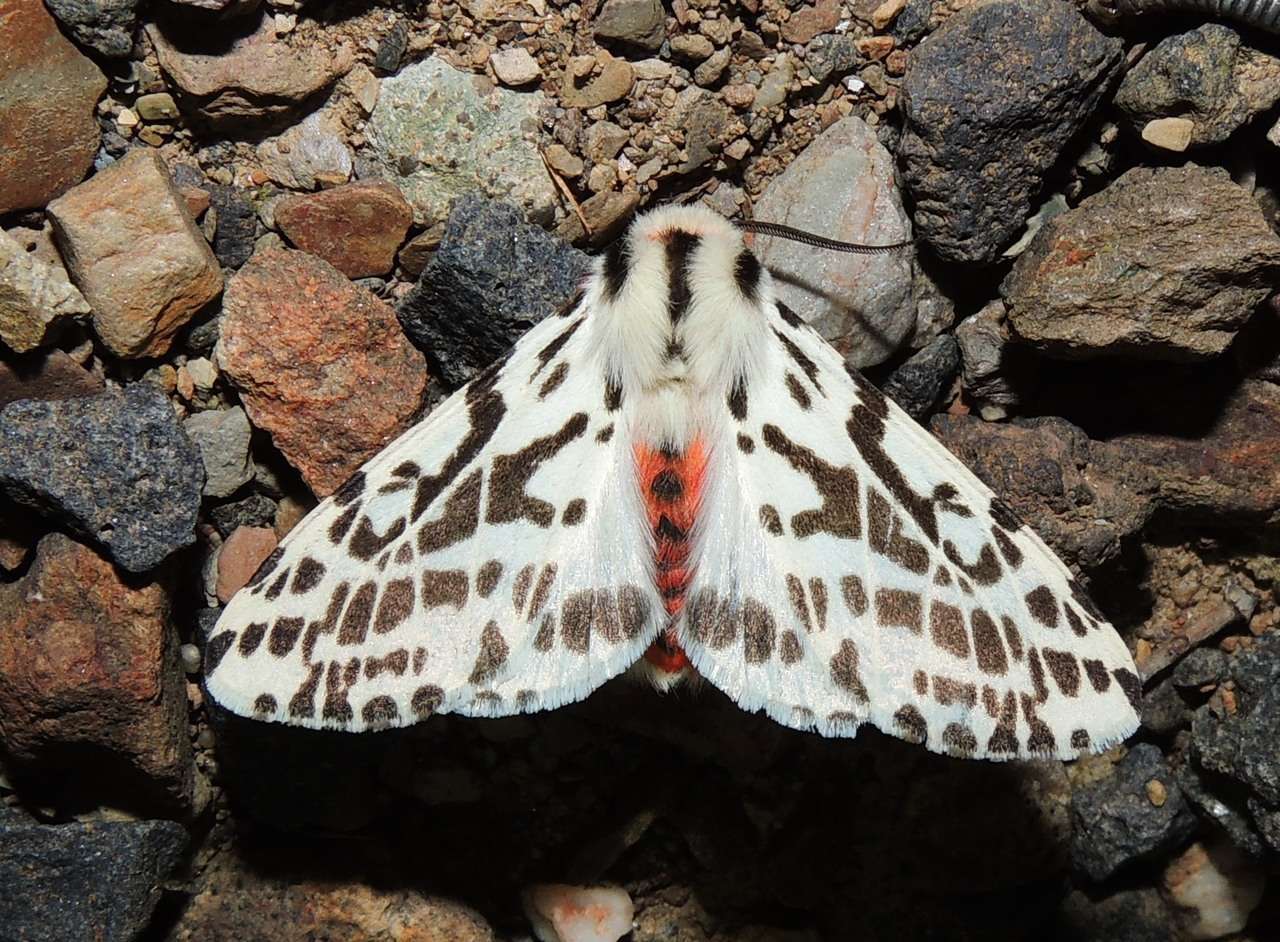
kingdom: Animalia
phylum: Arthropoda
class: Insecta
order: Lepidoptera
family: Erebidae
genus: Ardices
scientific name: Ardices glatignyi
